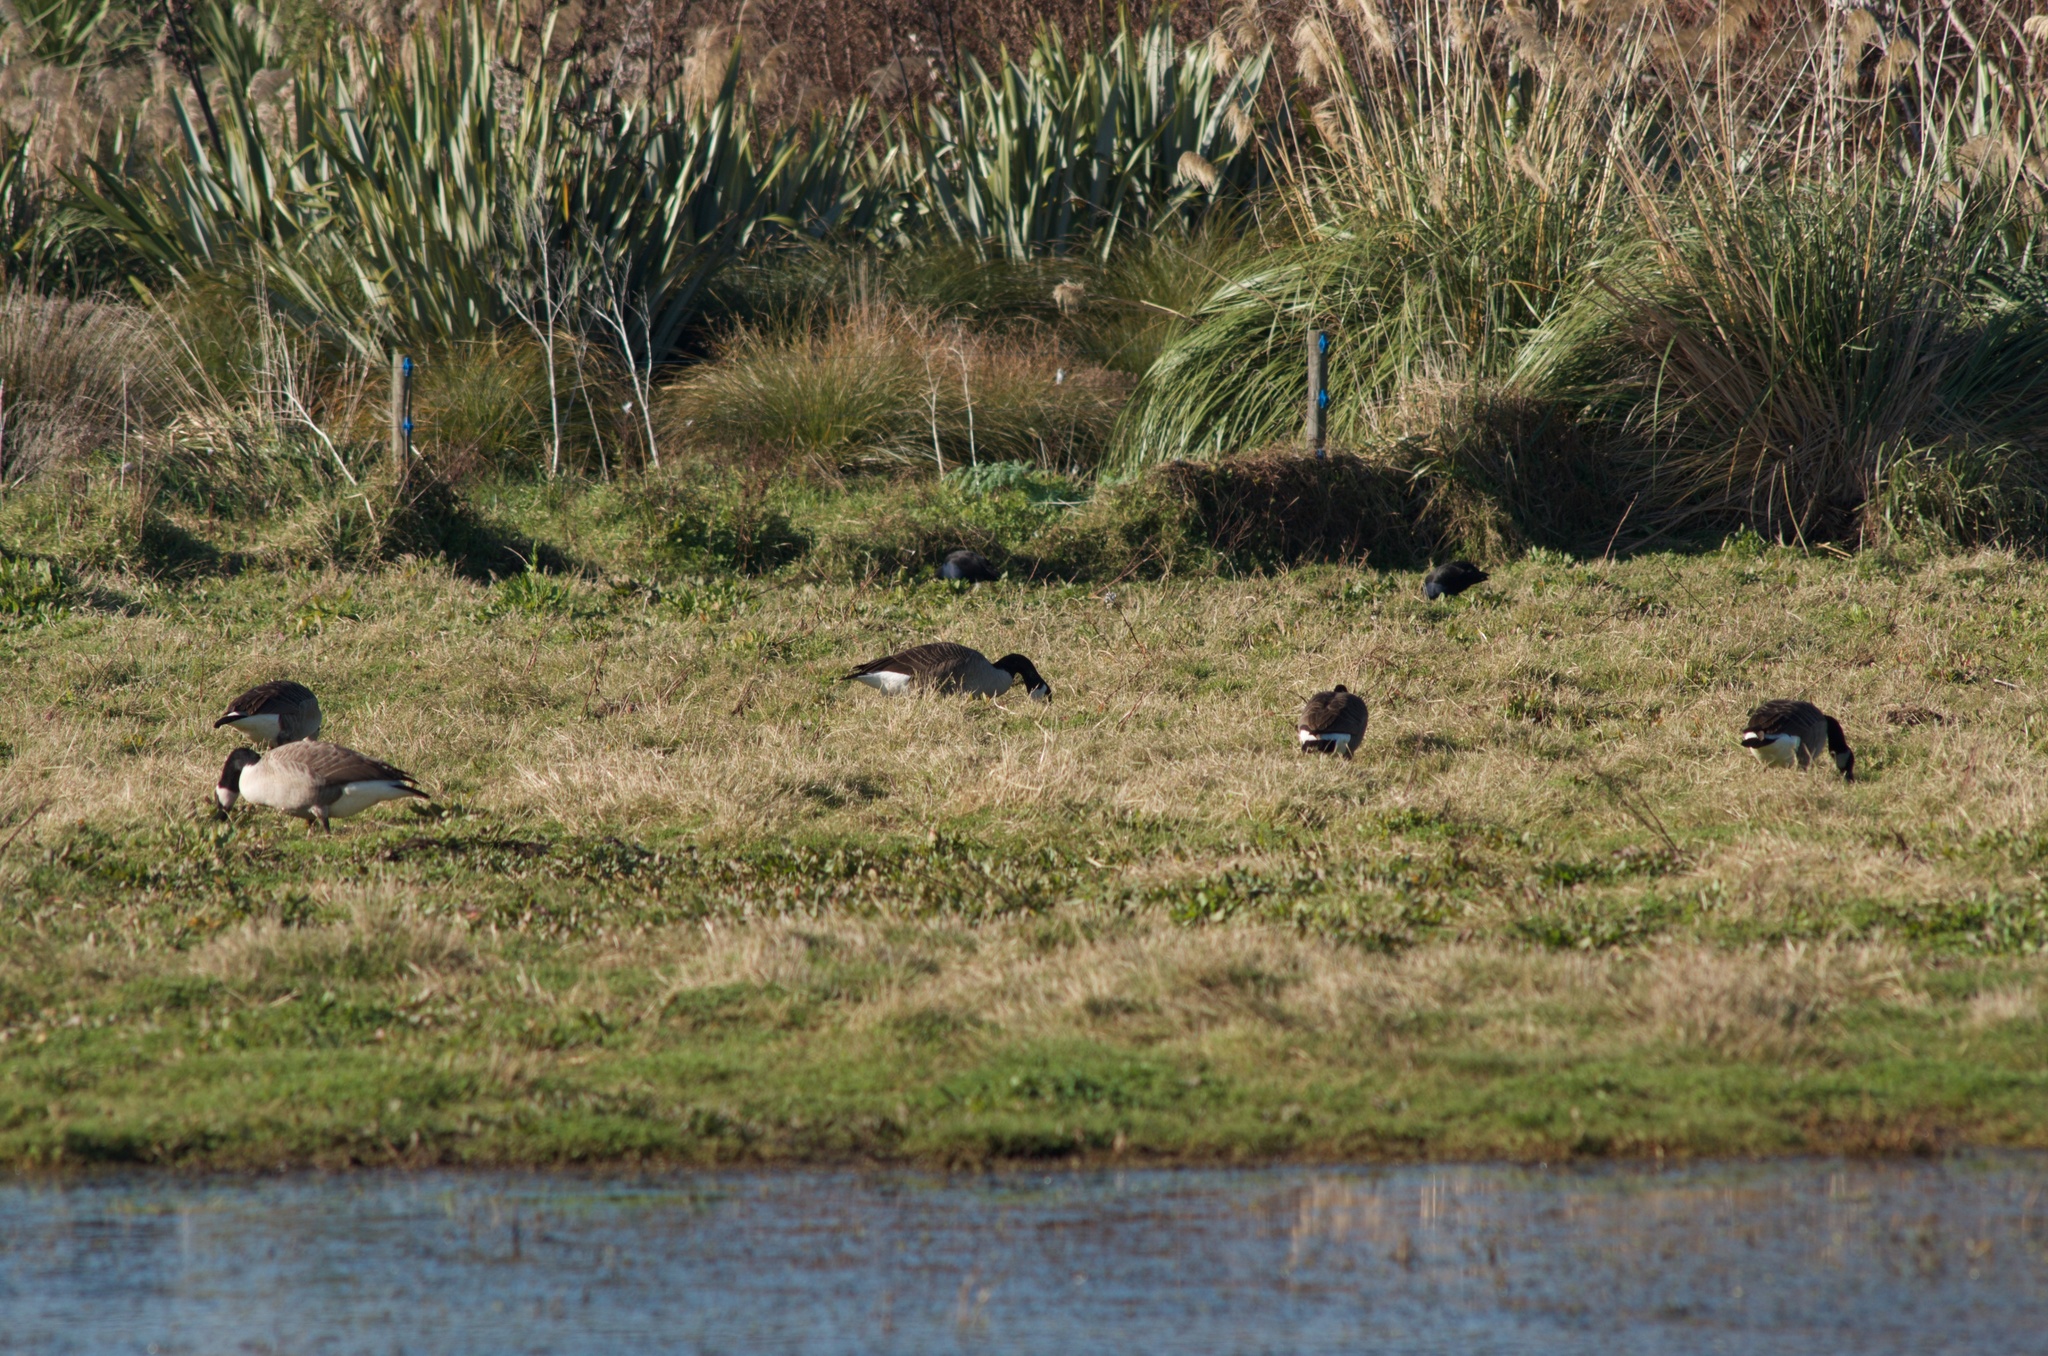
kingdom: Animalia
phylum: Chordata
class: Aves
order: Anseriformes
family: Anatidae
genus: Branta
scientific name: Branta canadensis
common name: Canada goose
